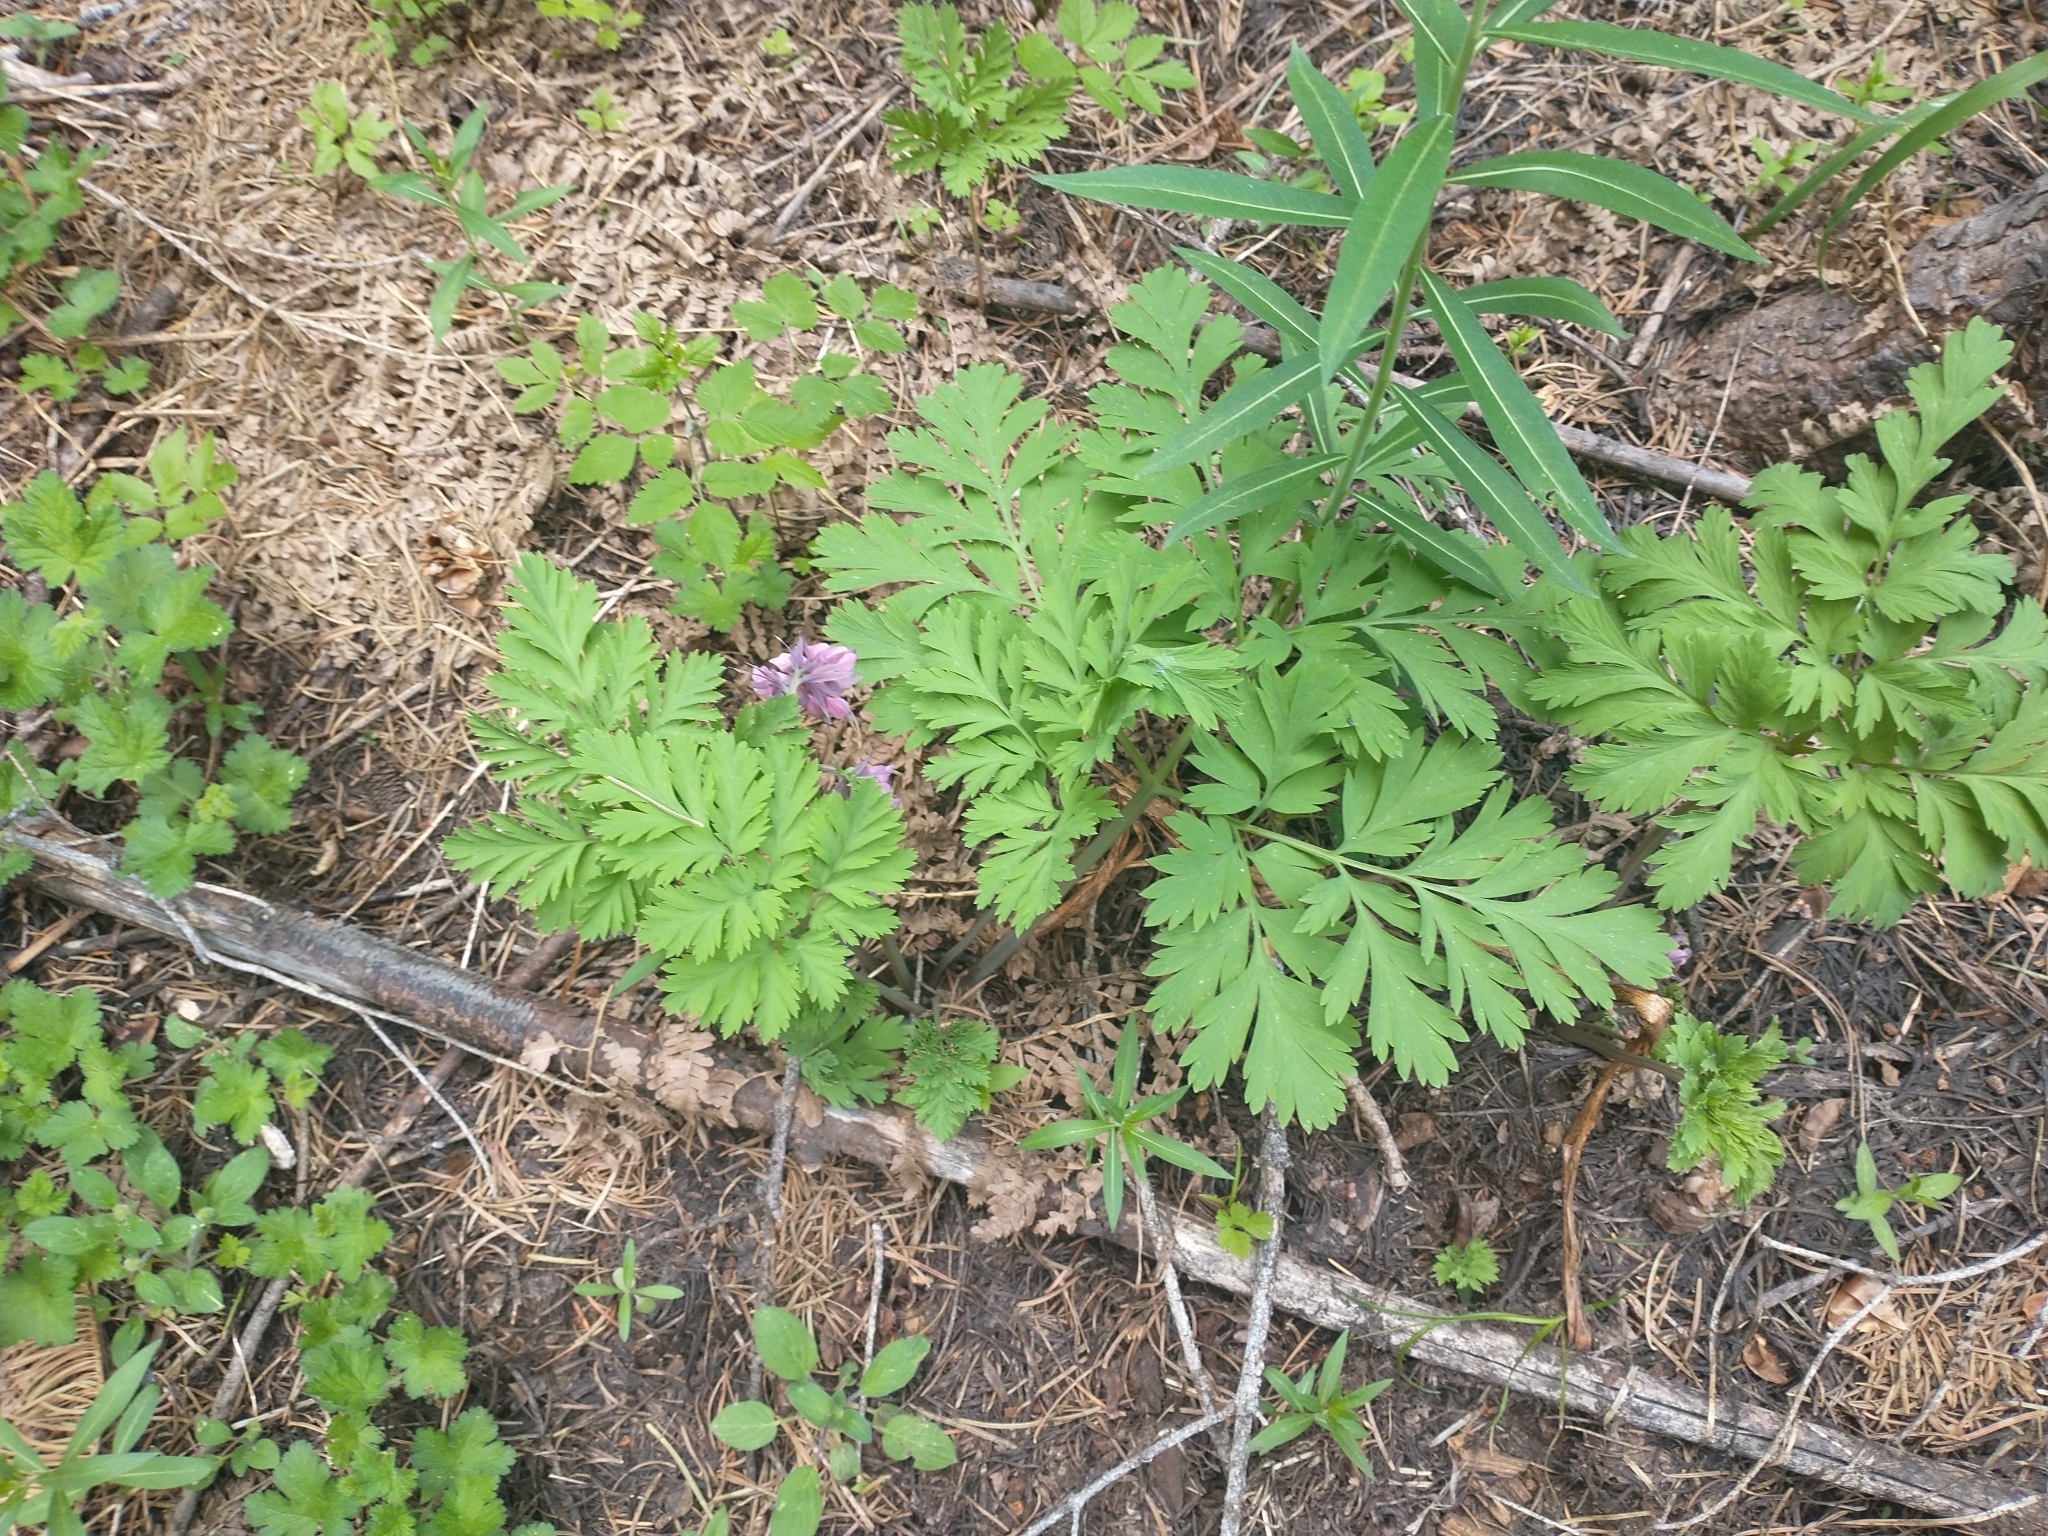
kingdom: Plantae
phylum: Tracheophyta
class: Magnoliopsida
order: Ranunculales
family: Papaveraceae
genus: Dicentra
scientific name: Dicentra formosa
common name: Bleeding-heart
